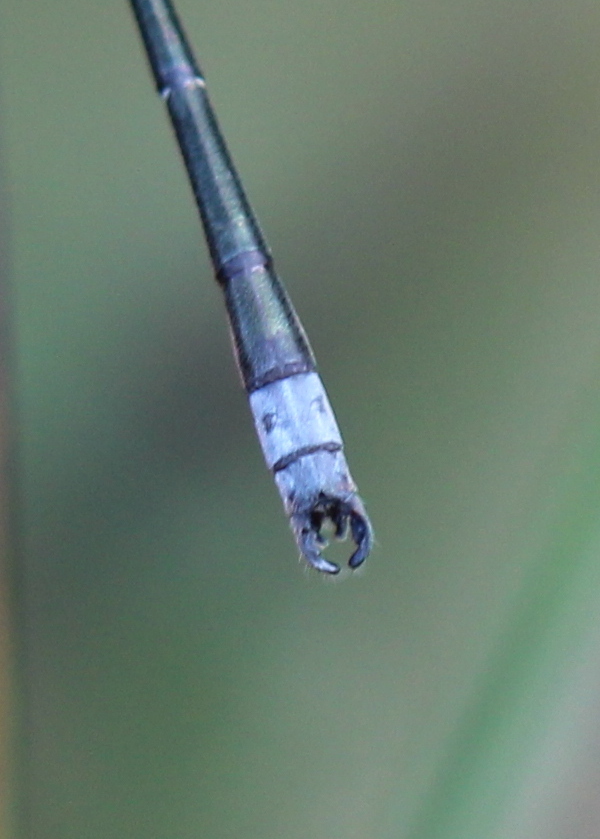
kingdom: Animalia
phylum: Arthropoda
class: Insecta
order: Odonata
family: Lestidae
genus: Lestes
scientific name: Lestes congener
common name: Spotted spreadwing
